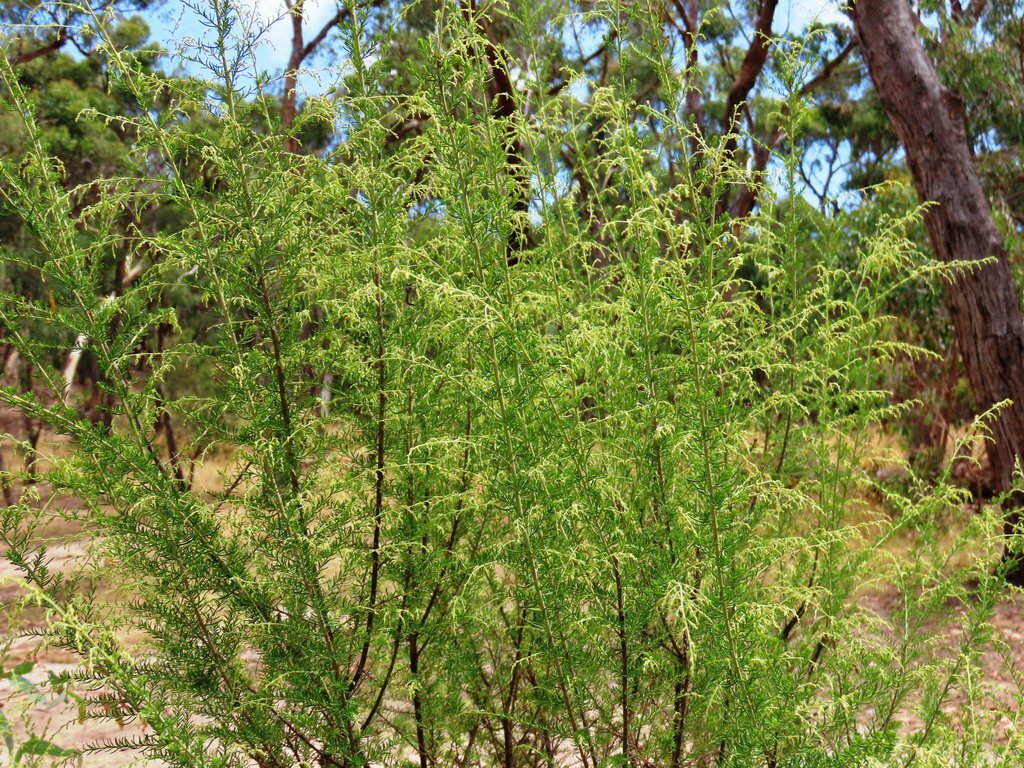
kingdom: Plantae
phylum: Tracheophyta
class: Magnoliopsida
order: Asterales
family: Asteraceae
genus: Cassinia
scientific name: Cassinia sifton
